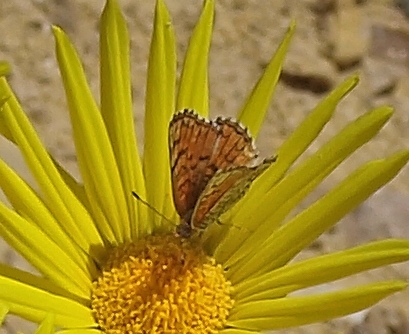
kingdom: Animalia
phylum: Arthropoda
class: Insecta
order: Lepidoptera
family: Nymphalidae
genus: Chlosyne
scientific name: Chlosyne acastus
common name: Sagebrush checkerspot
